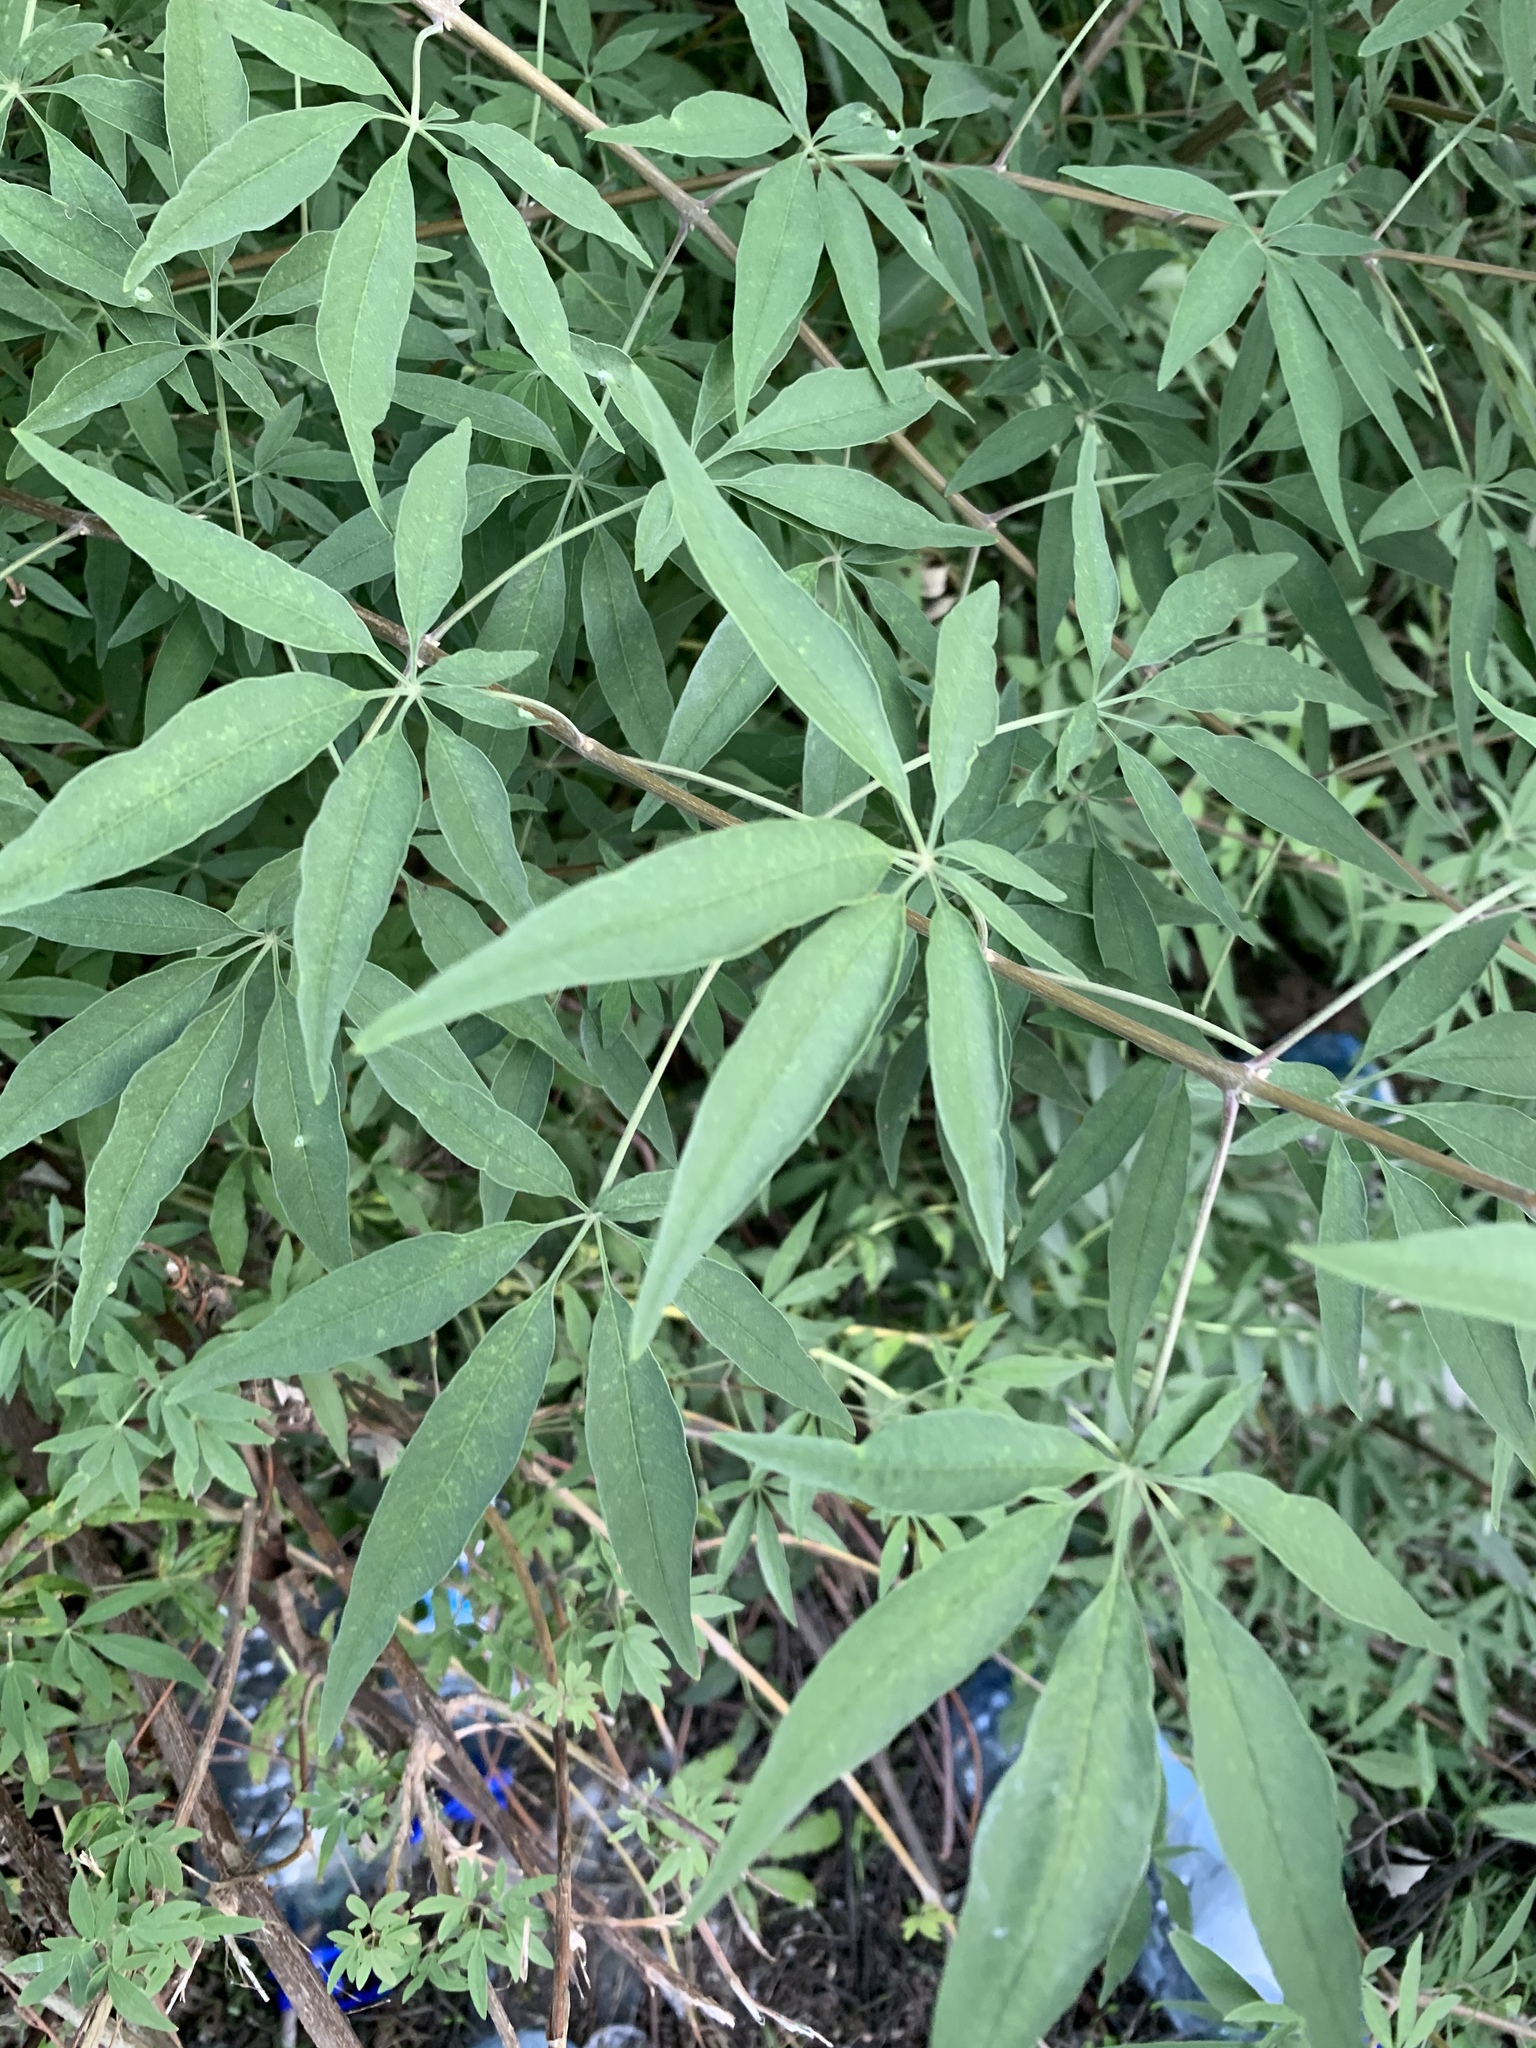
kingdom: Plantae
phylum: Tracheophyta
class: Magnoliopsida
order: Lamiales
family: Lamiaceae
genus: Vitex
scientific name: Vitex agnus-castus
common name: Chasteberry
